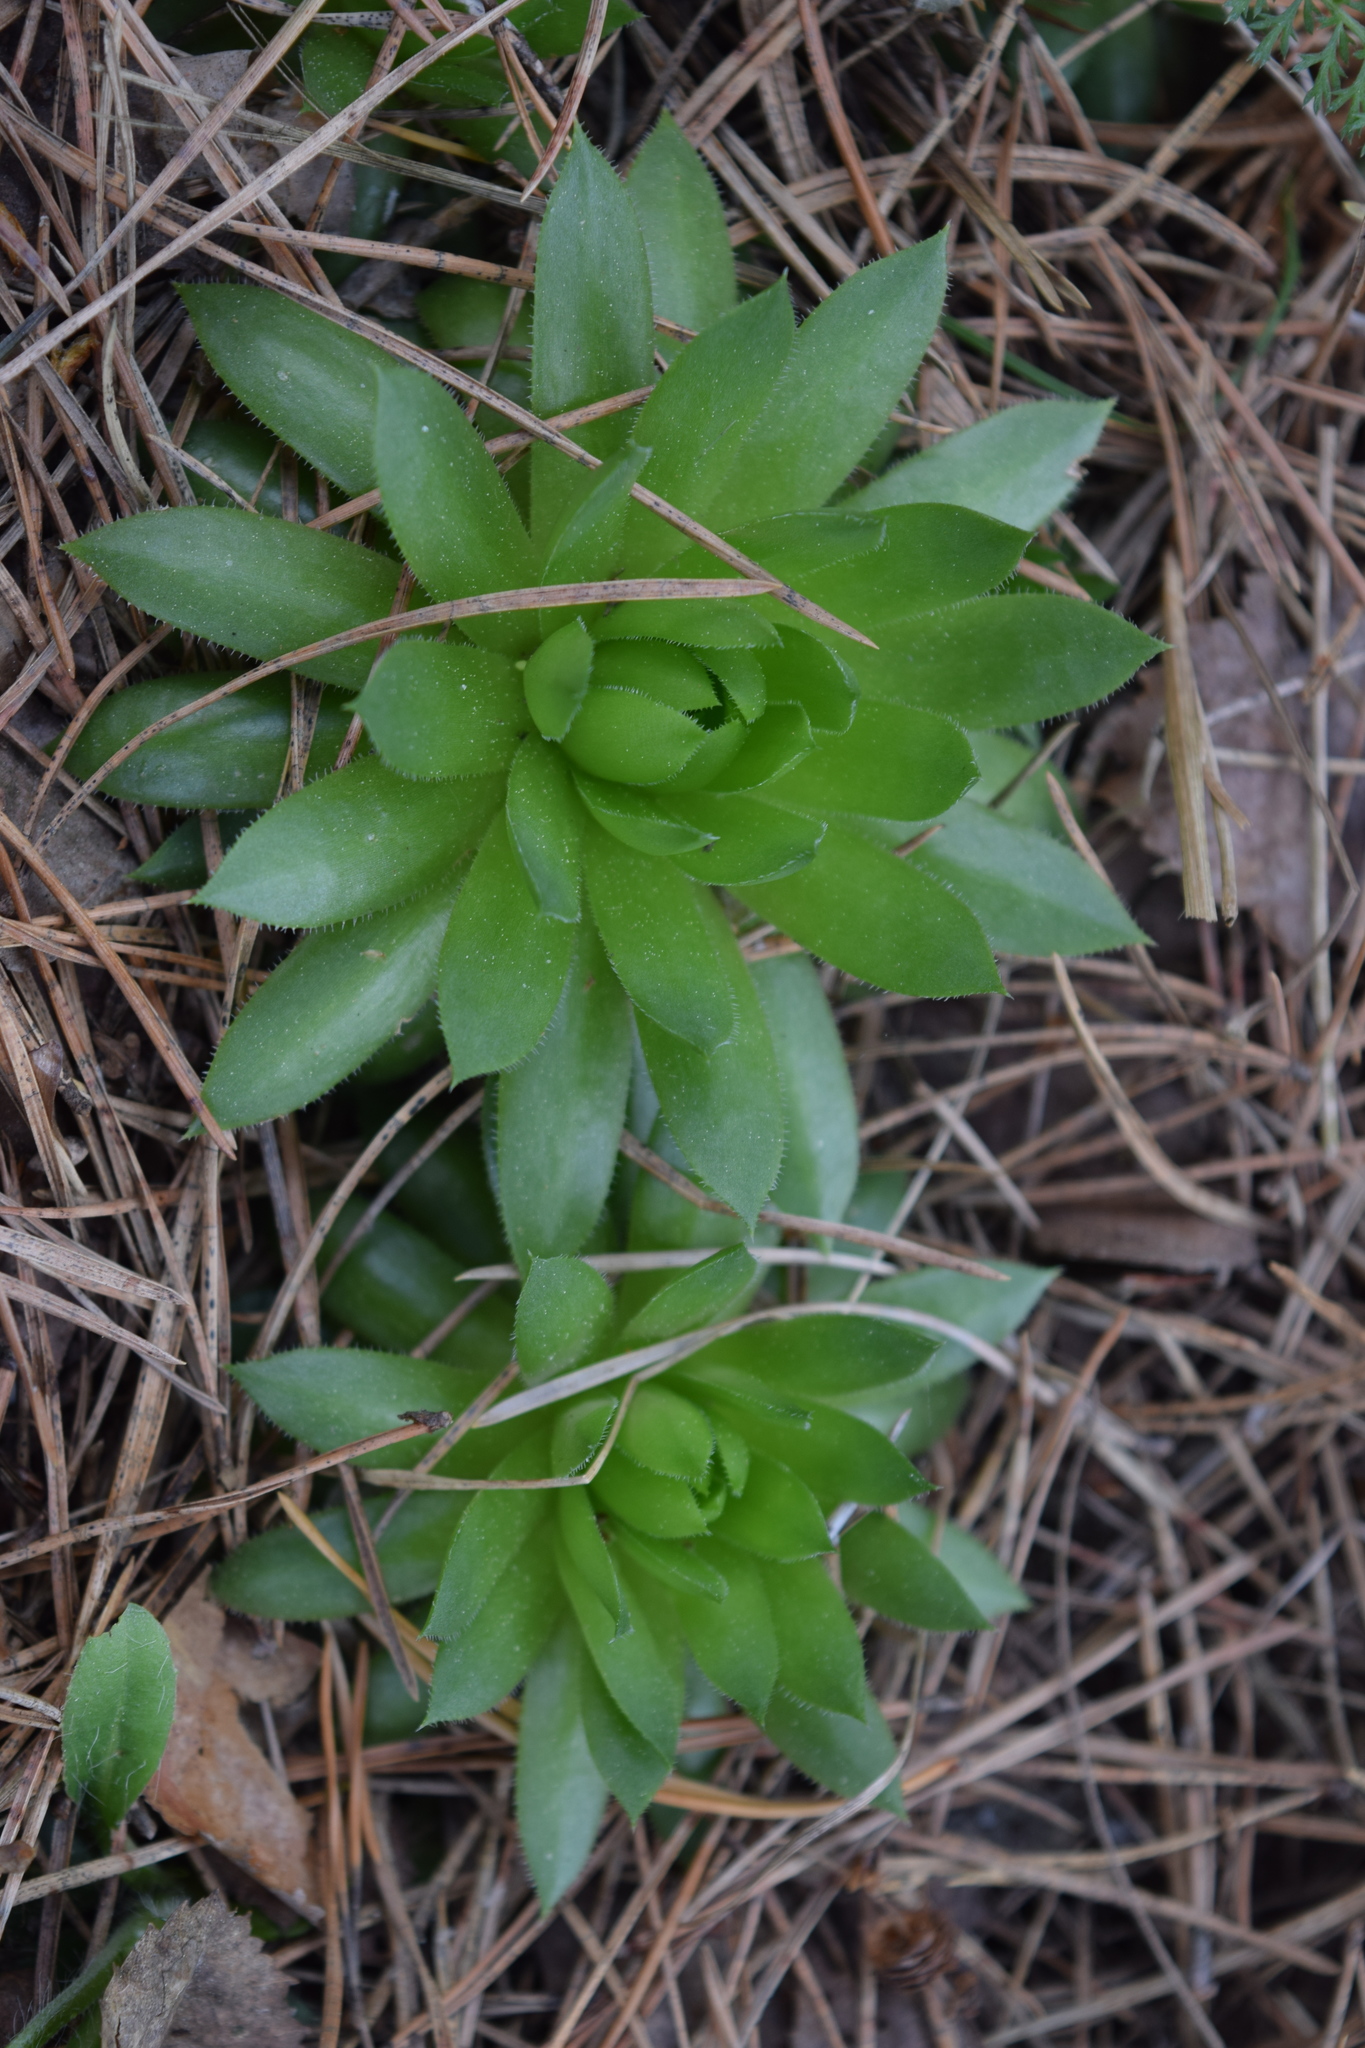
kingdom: Plantae
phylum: Tracheophyta
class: Magnoliopsida
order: Saxifragales
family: Crassulaceae
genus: Sempervivum
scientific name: Sempervivum globiferum
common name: Rolling hen-and-chicks
